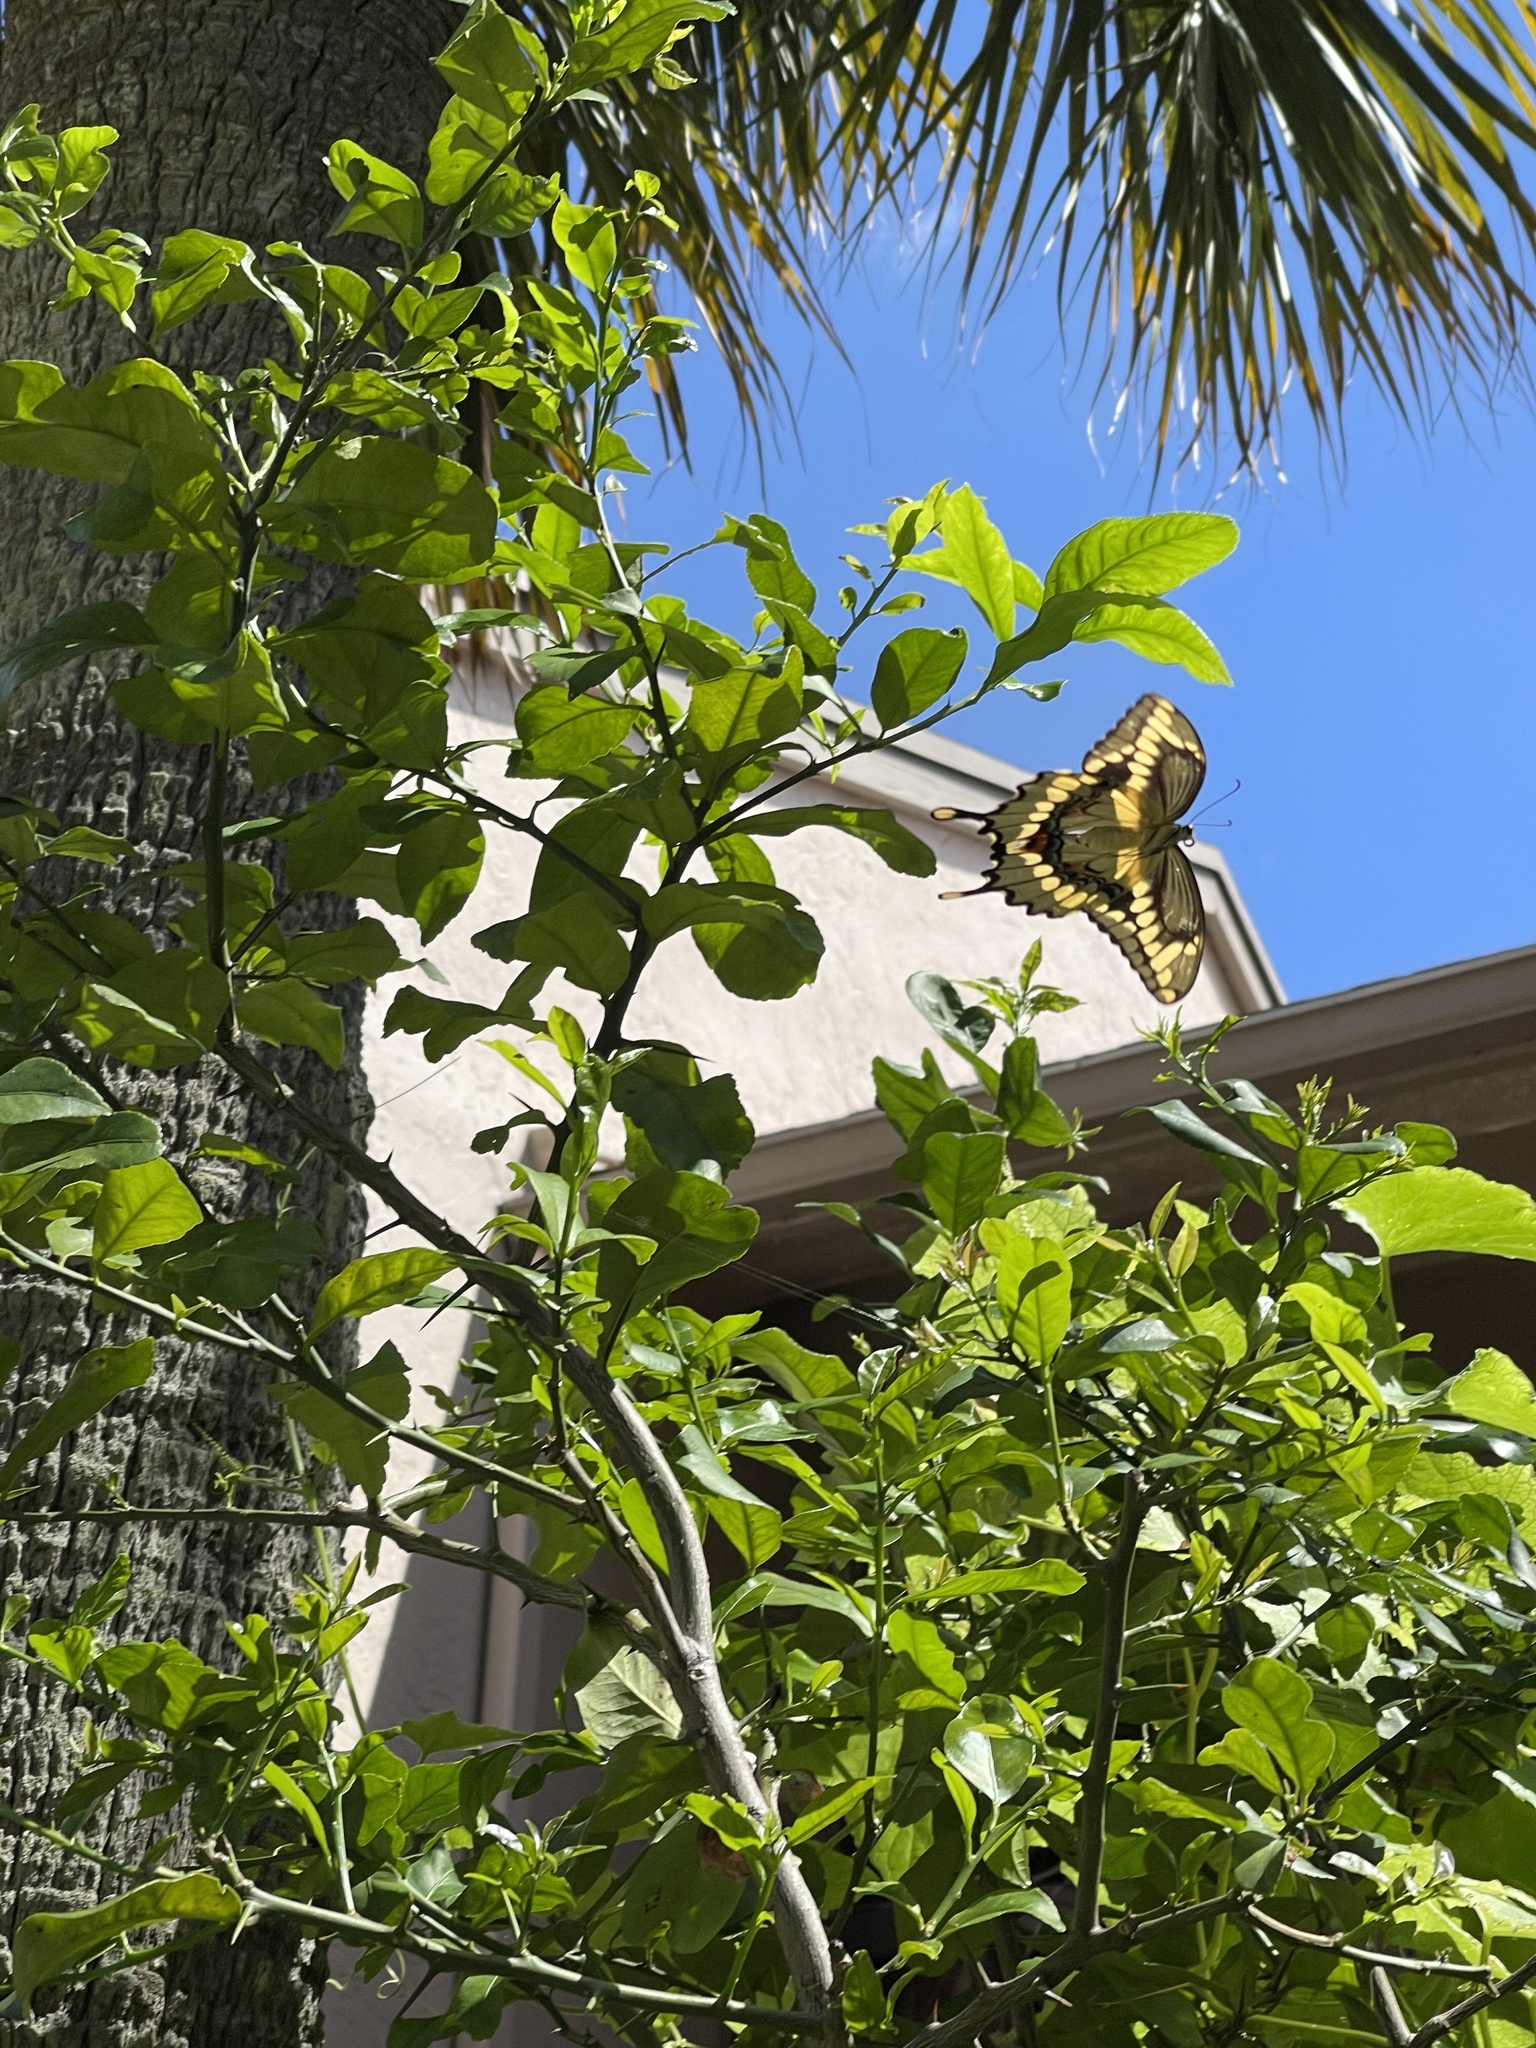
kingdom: Animalia
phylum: Arthropoda
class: Insecta
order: Lepidoptera
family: Papilionidae
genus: Papilio
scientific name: Papilio cresphontes
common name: Giant swallowtail
